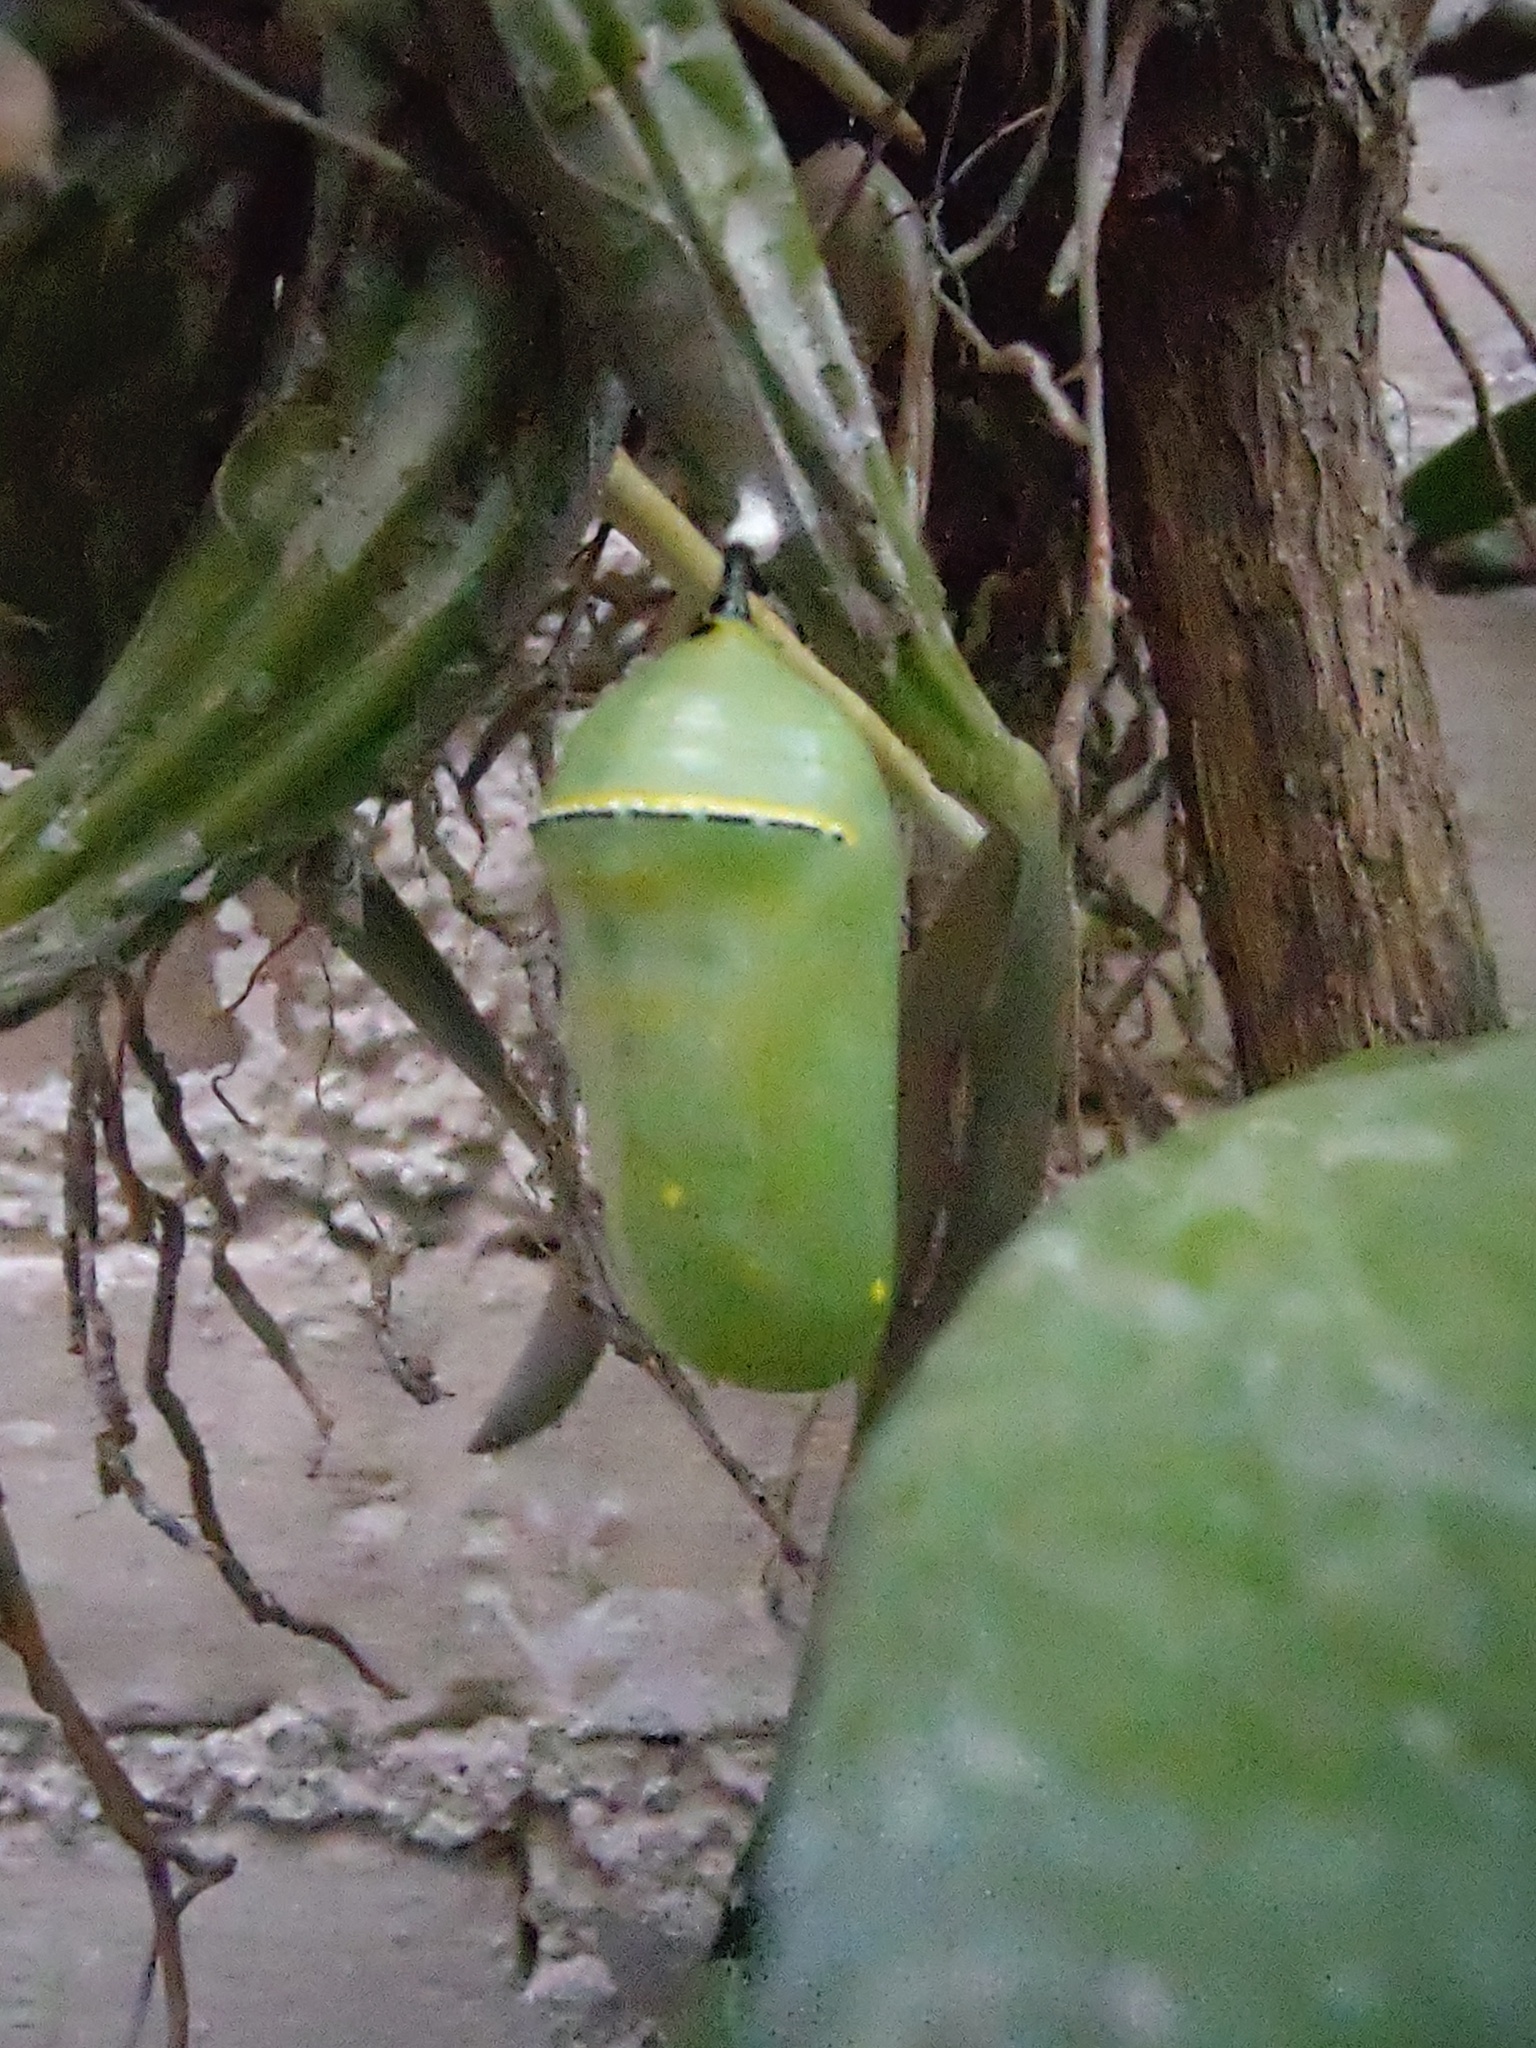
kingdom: Animalia
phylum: Arthropoda
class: Insecta
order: Lepidoptera
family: Nymphalidae
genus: Danaus
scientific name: Danaus plexippus
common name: Monarch
